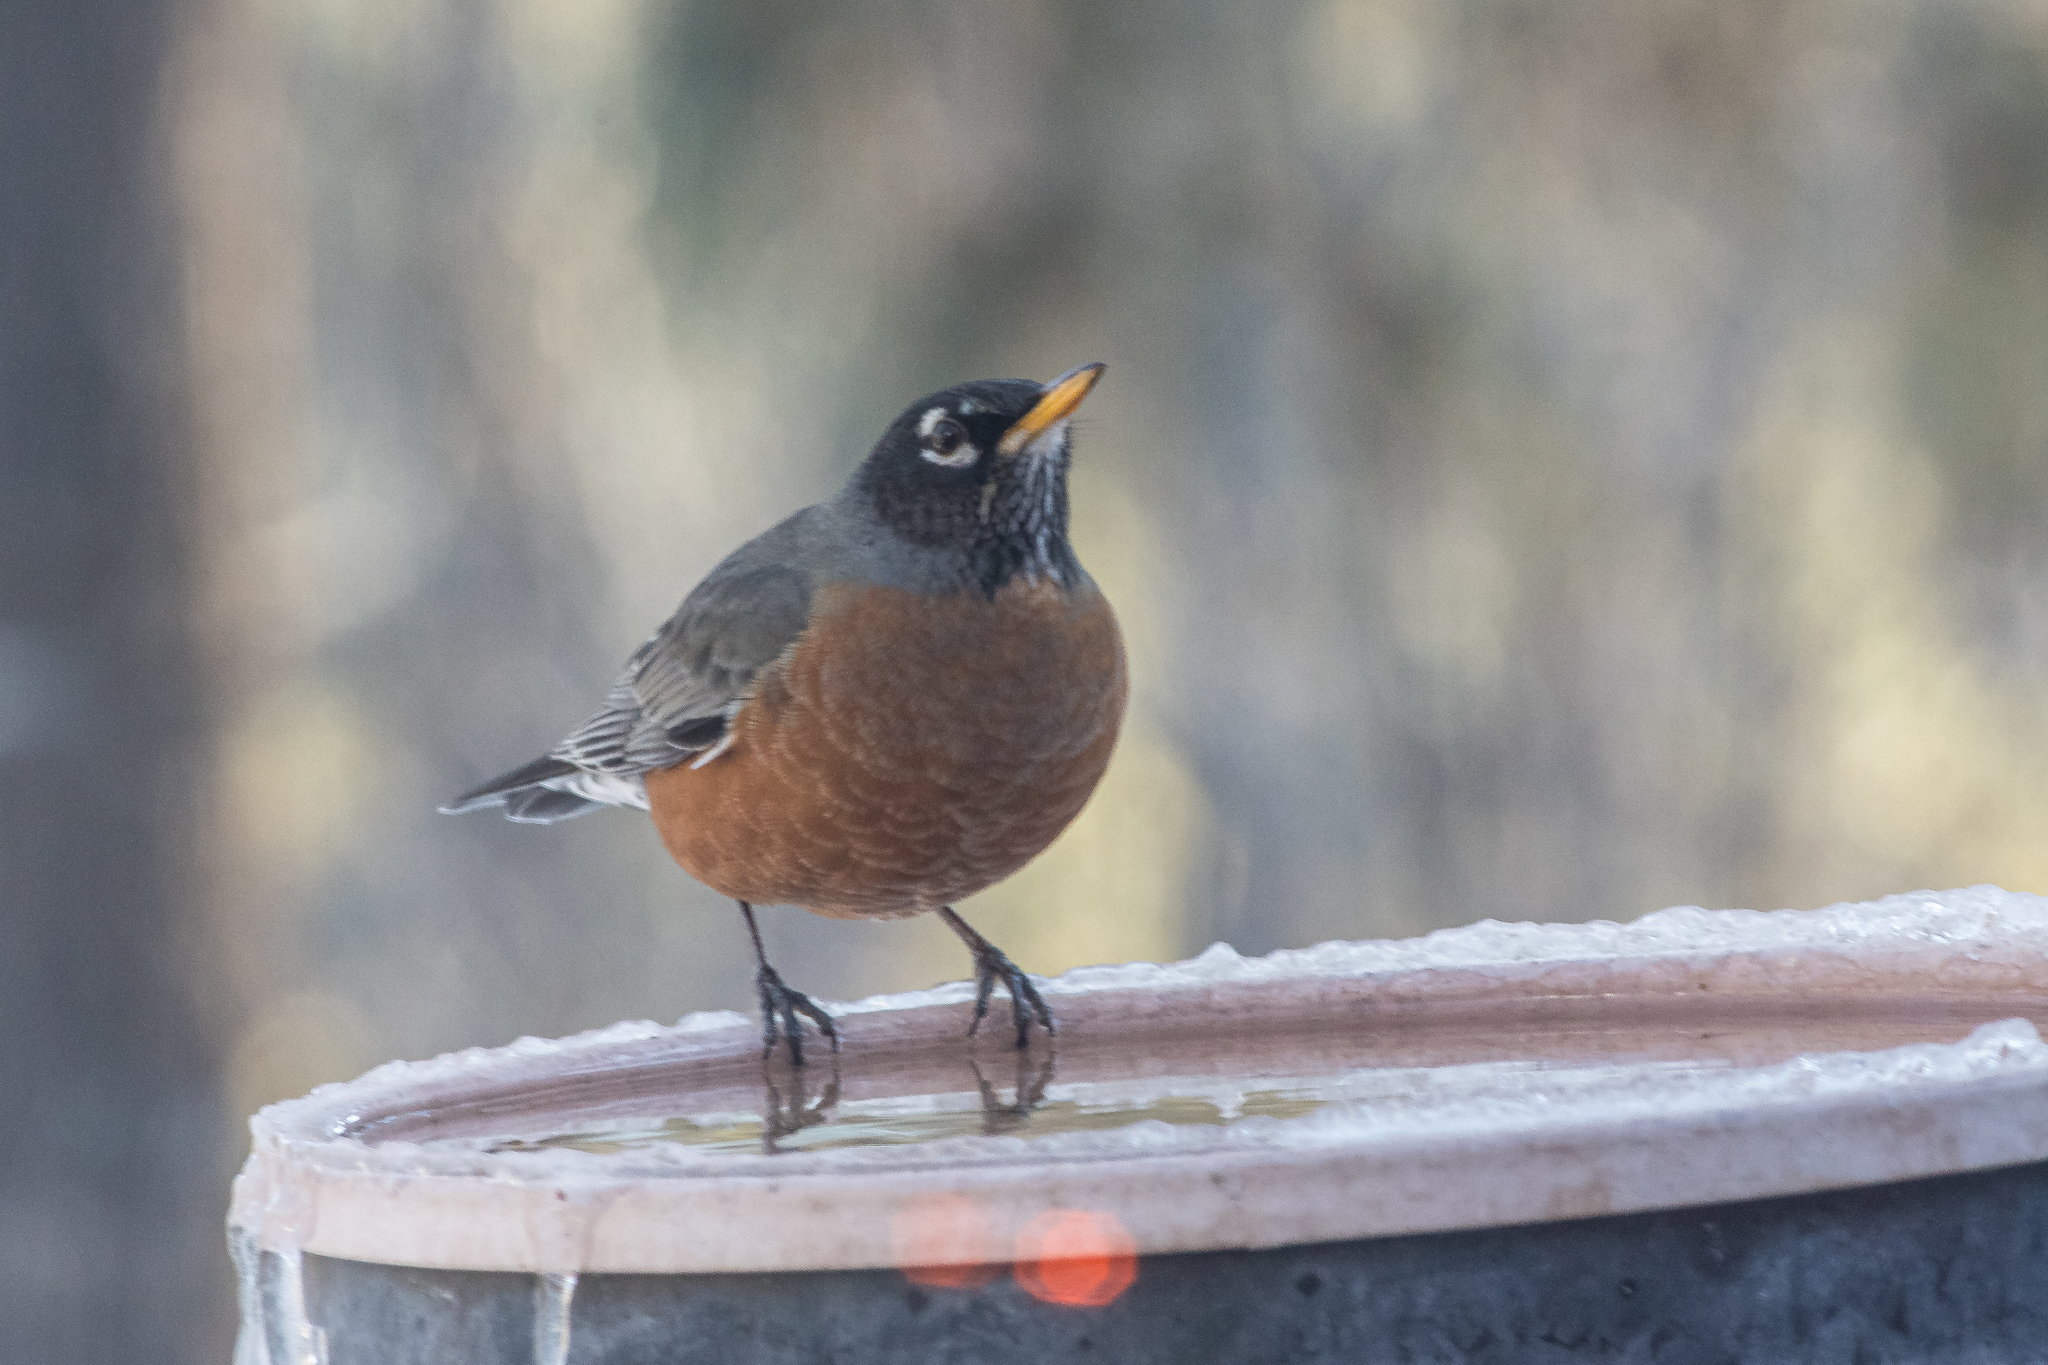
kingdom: Animalia
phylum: Chordata
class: Aves
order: Passeriformes
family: Turdidae
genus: Turdus
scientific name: Turdus migratorius
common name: American robin
